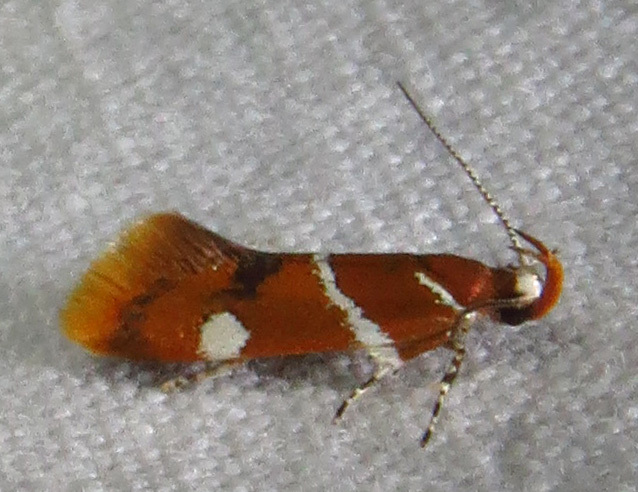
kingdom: Animalia
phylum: Arthropoda
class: Insecta
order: Lepidoptera
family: Oecophoridae
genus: Promalactis
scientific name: Promalactis suzukiella
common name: Moth
